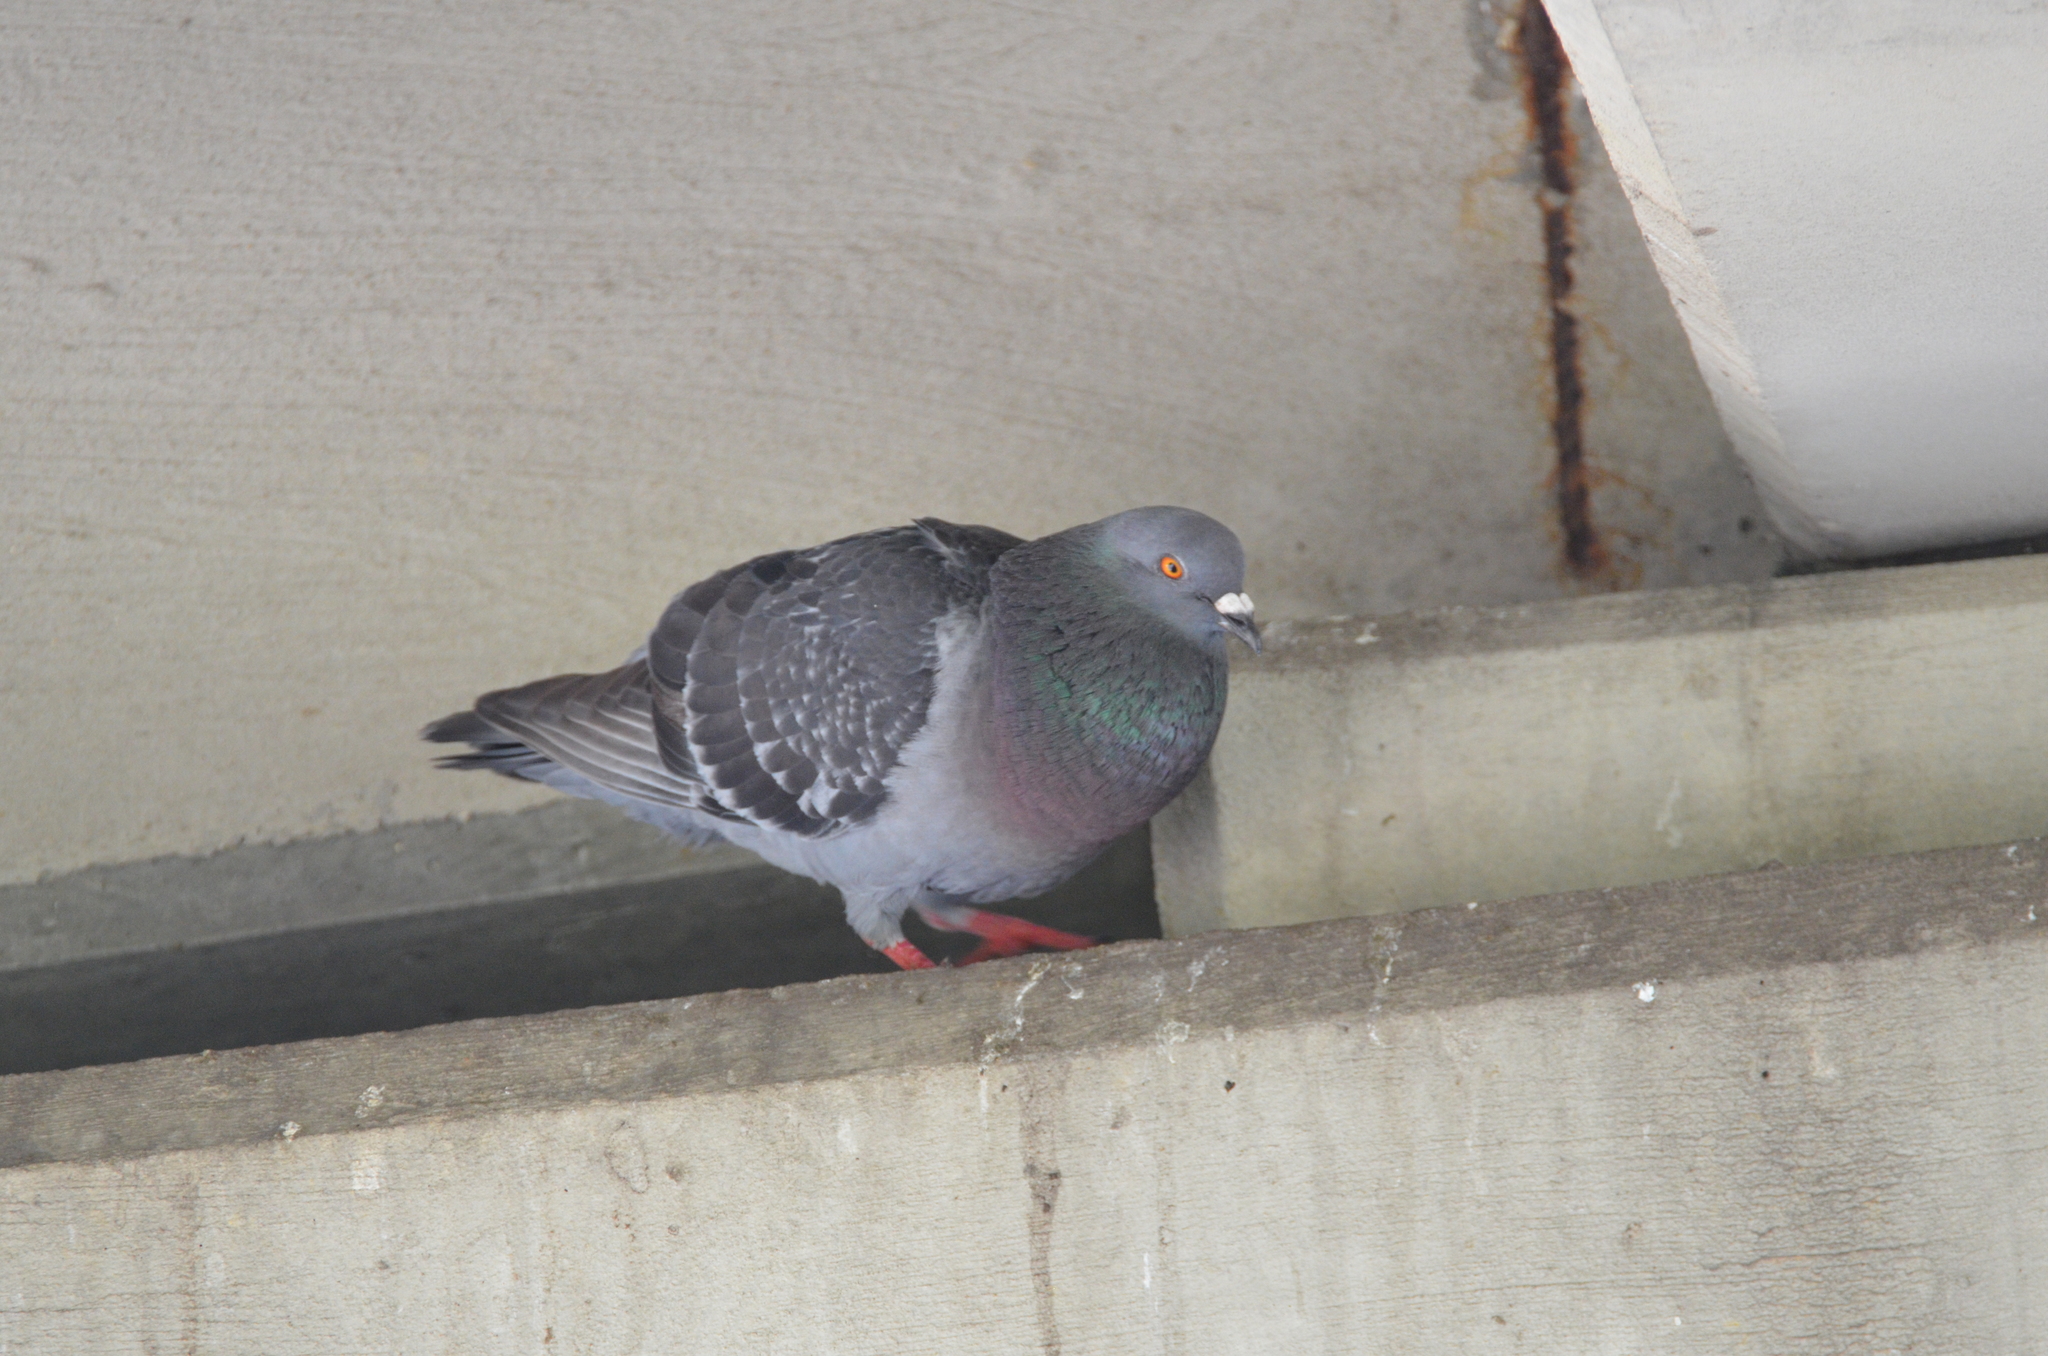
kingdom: Animalia
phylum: Chordata
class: Aves
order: Columbiformes
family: Columbidae
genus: Columba
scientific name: Columba livia
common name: Rock pigeon
